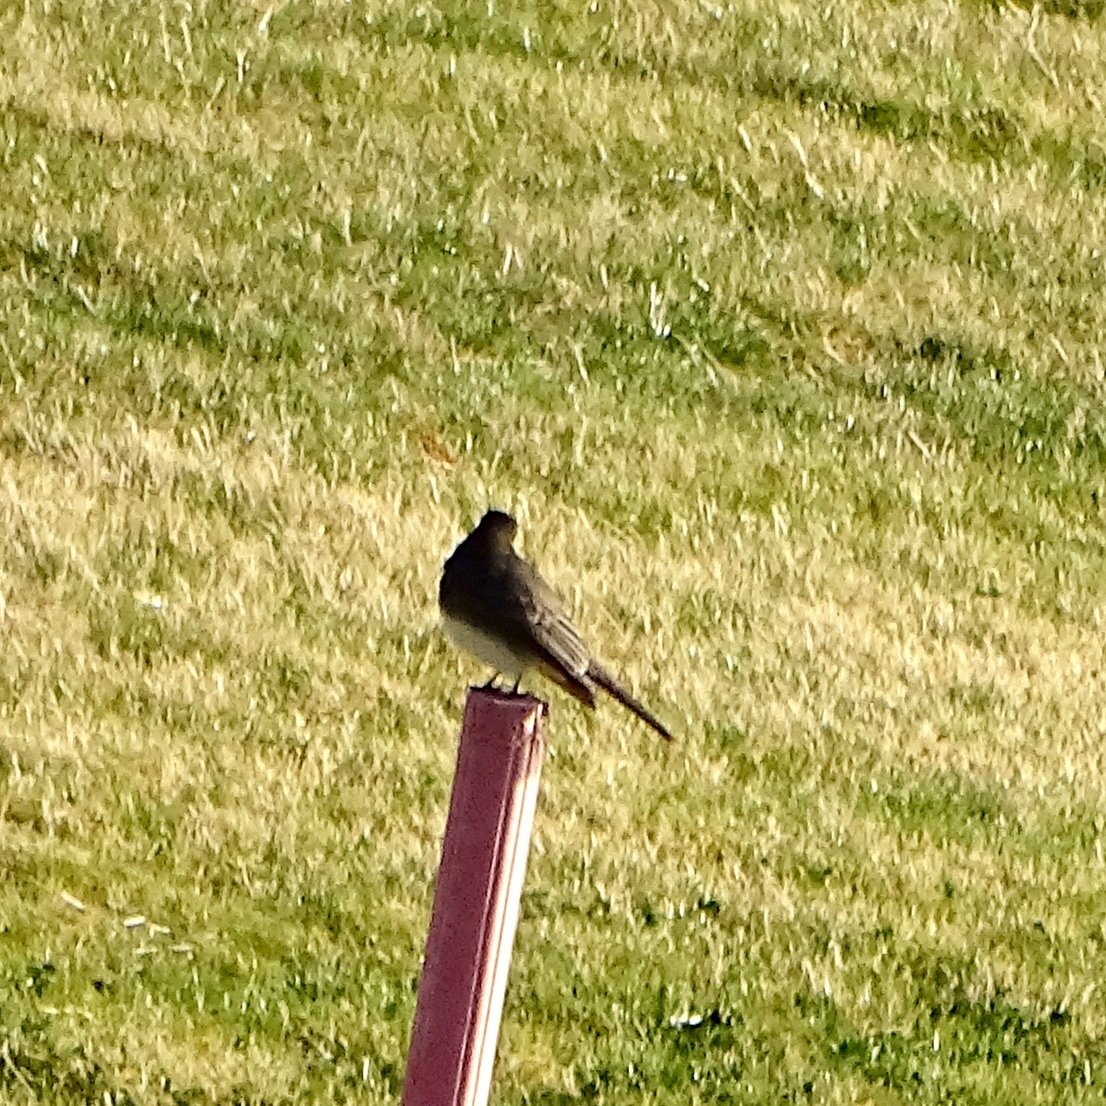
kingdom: Animalia
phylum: Chordata
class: Aves
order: Passeriformes
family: Tyrannidae
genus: Sayornis
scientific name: Sayornis nigricans
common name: Black phoebe
